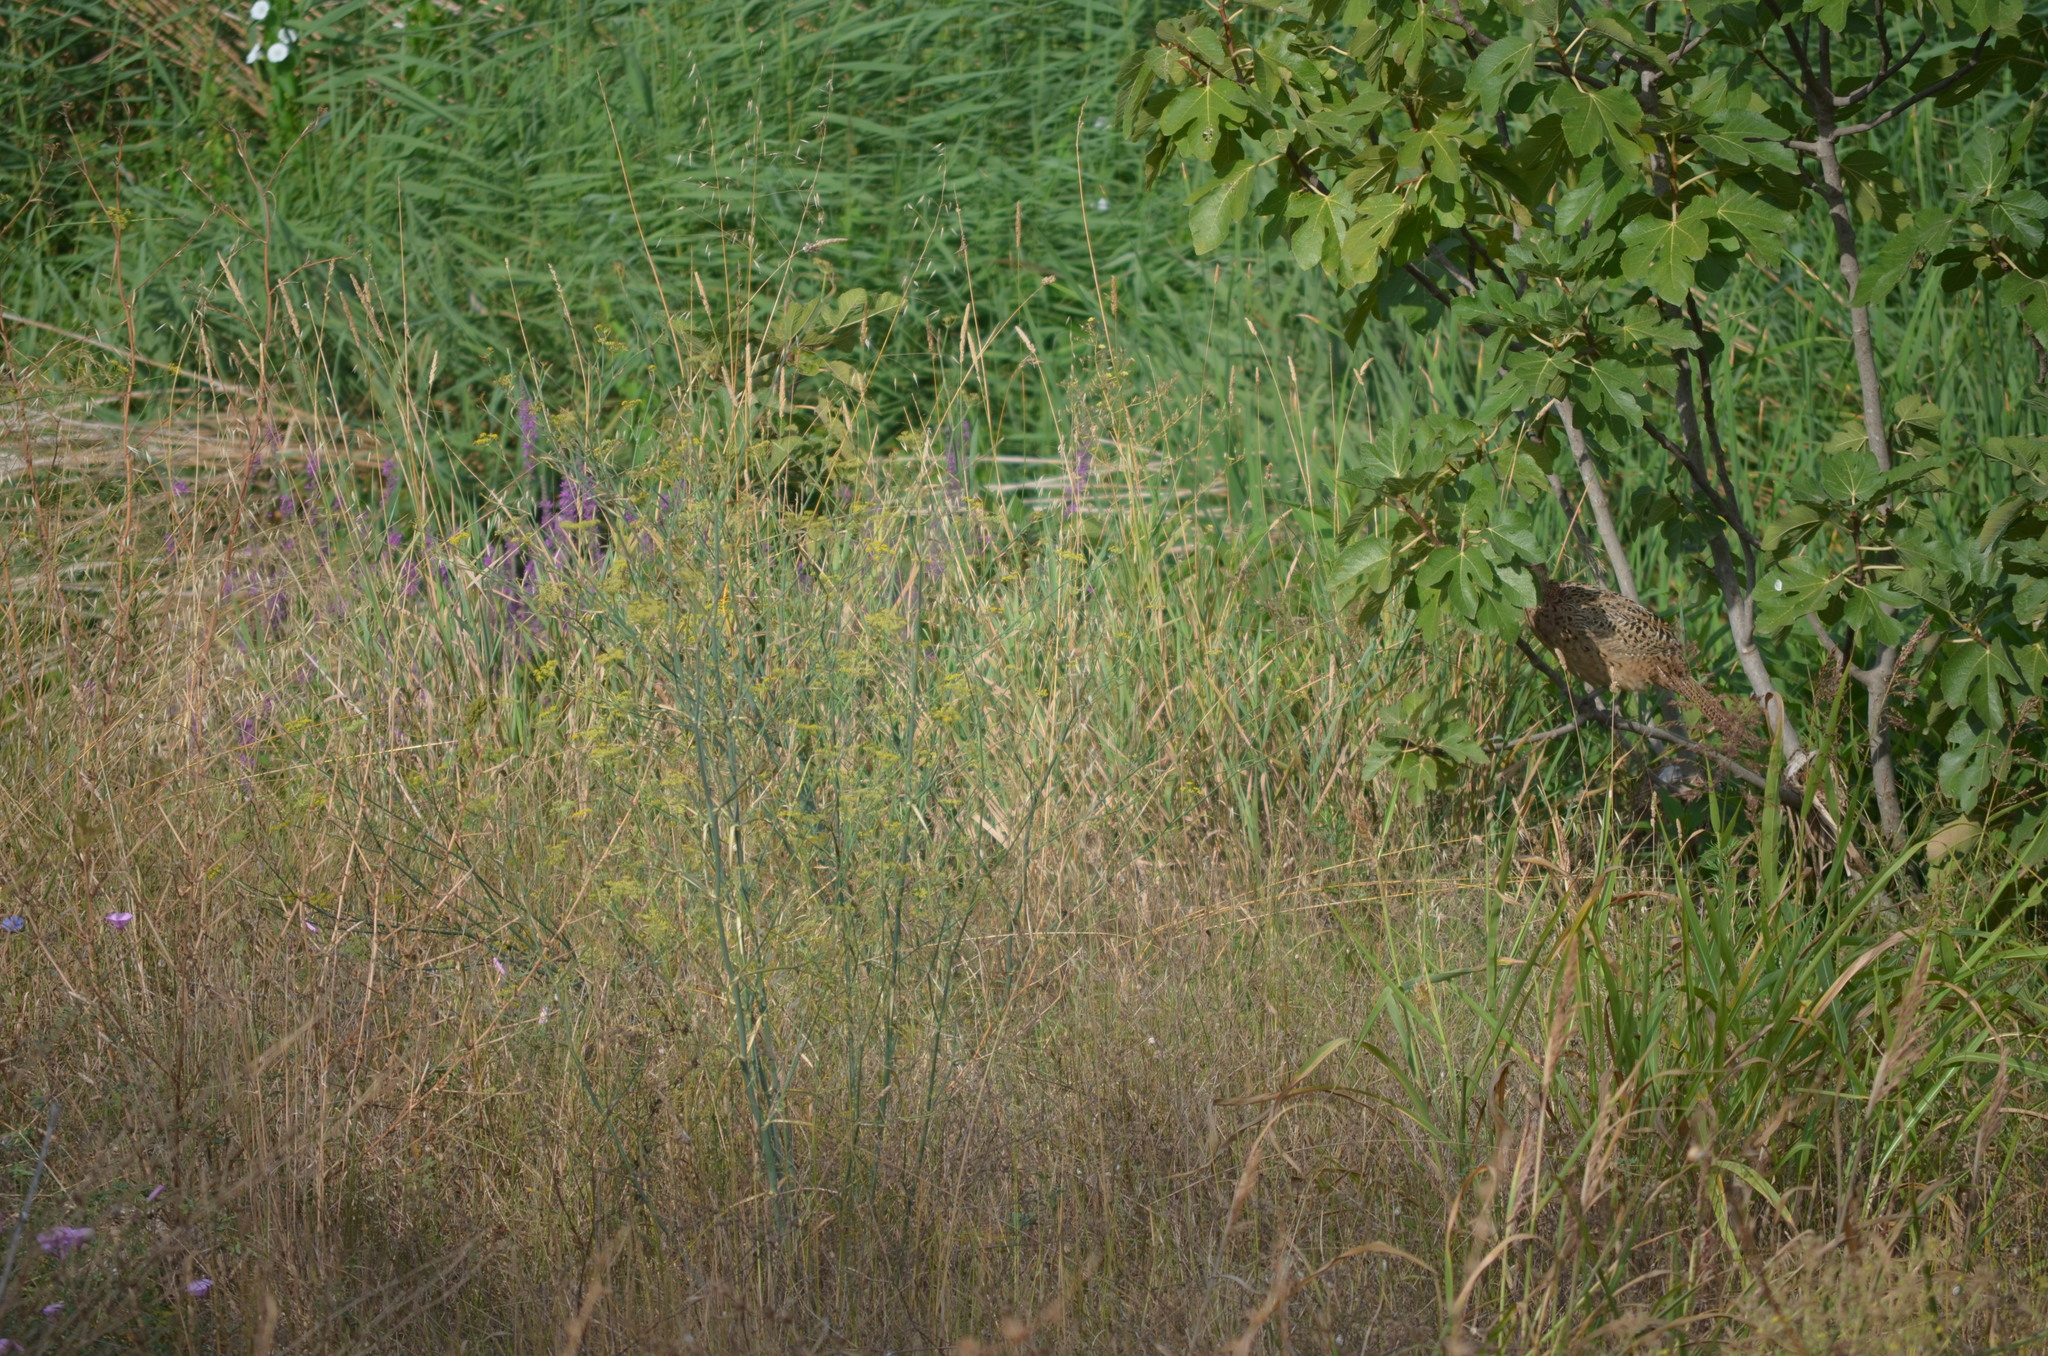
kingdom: Animalia
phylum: Chordata
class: Aves
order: Galliformes
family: Phasianidae
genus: Phasianus
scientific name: Phasianus colchicus
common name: Common pheasant
